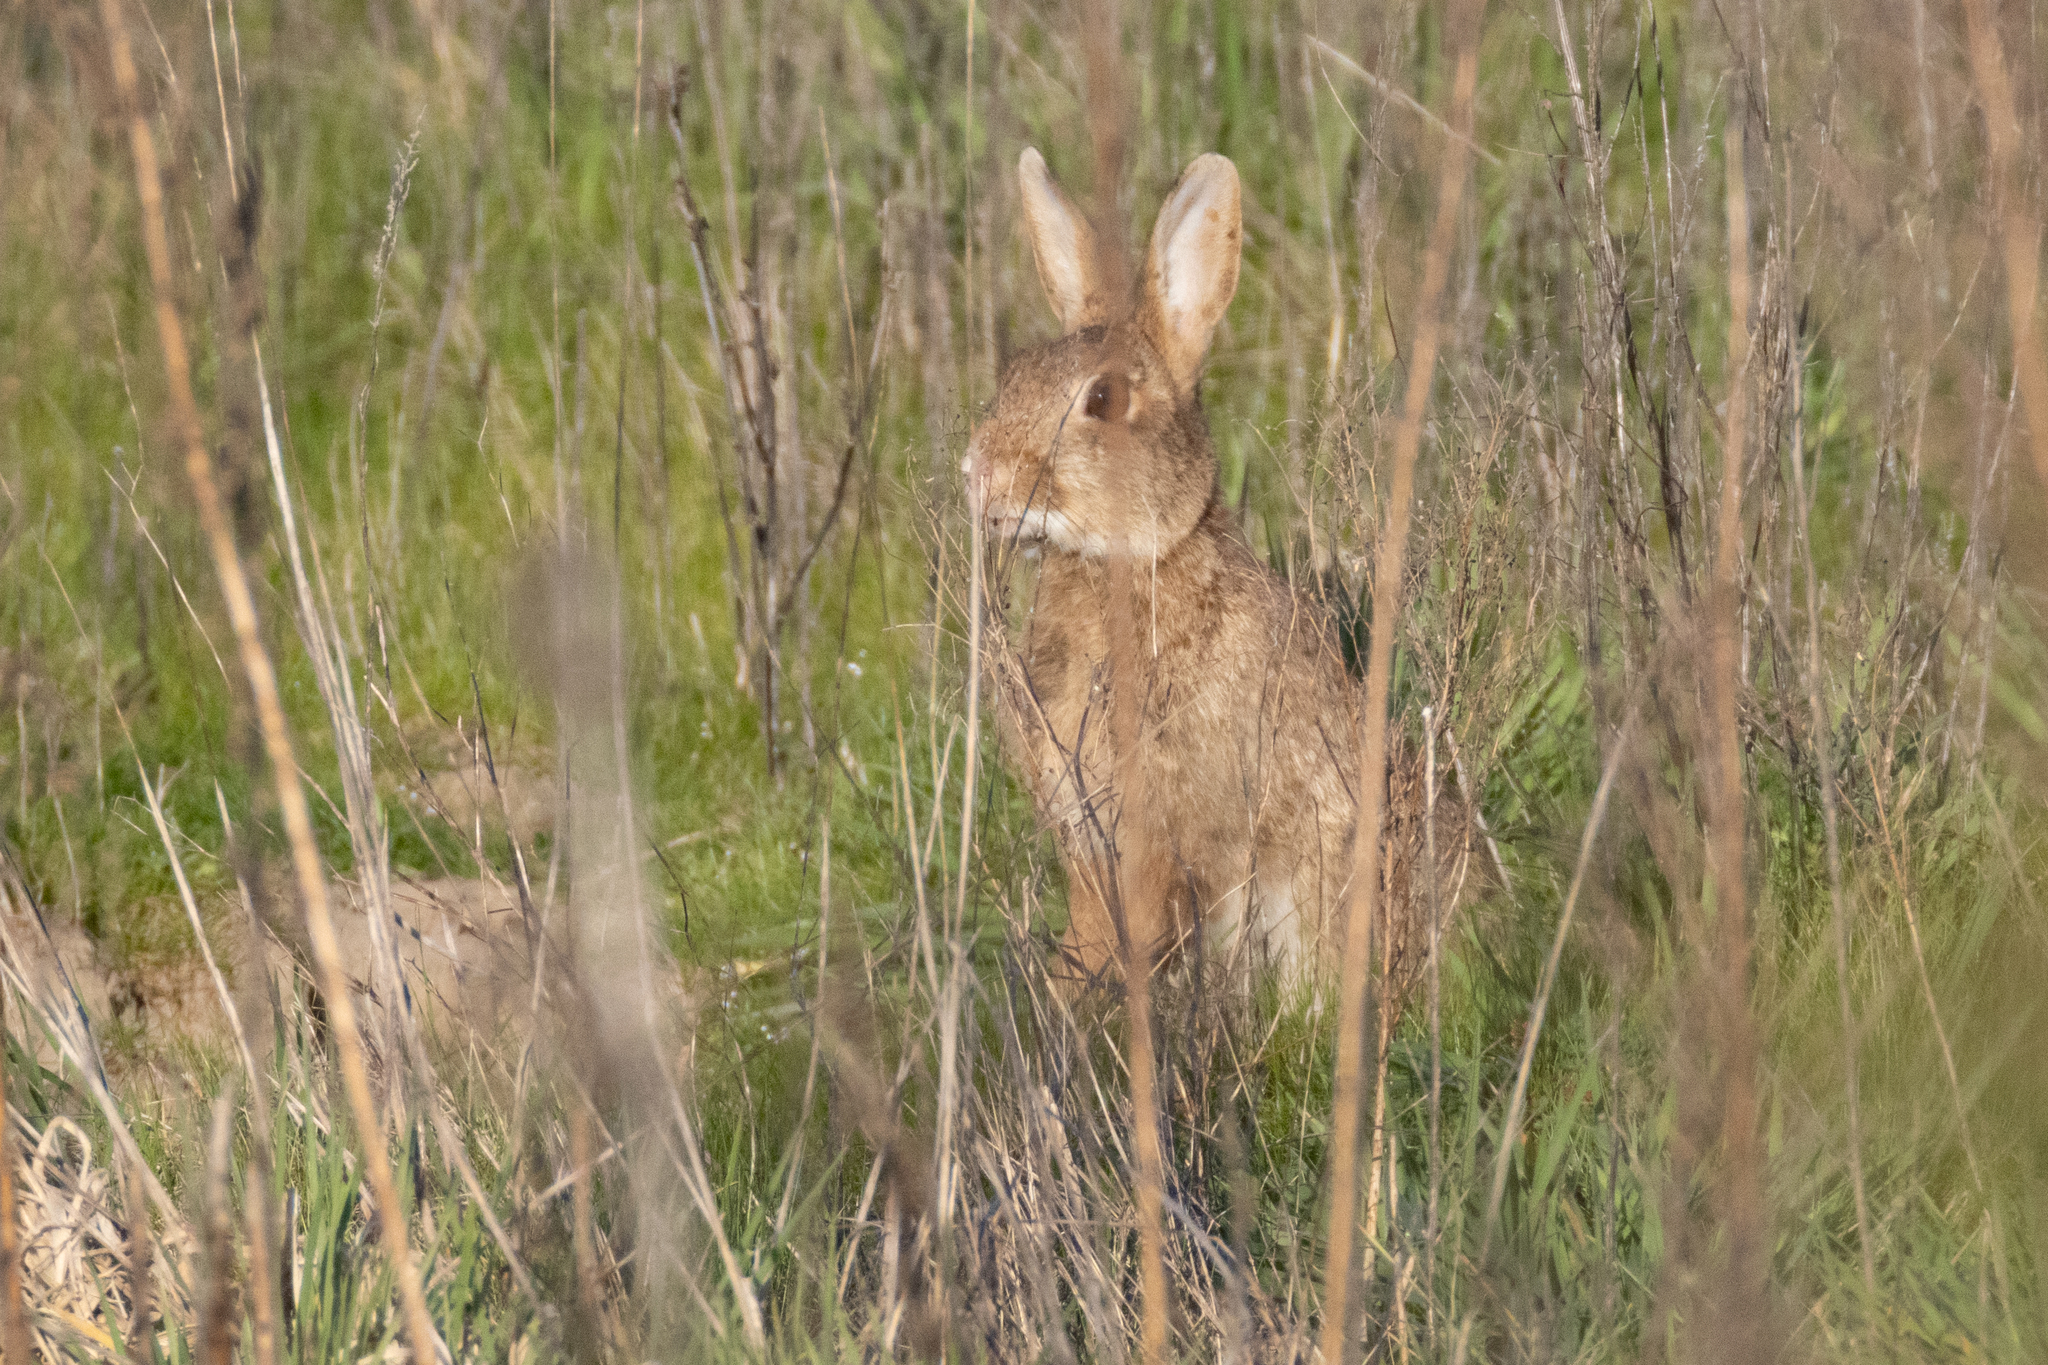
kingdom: Animalia
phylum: Chordata
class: Mammalia
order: Lagomorpha
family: Leporidae
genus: Oryctolagus
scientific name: Oryctolagus cuniculus
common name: European rabbit
